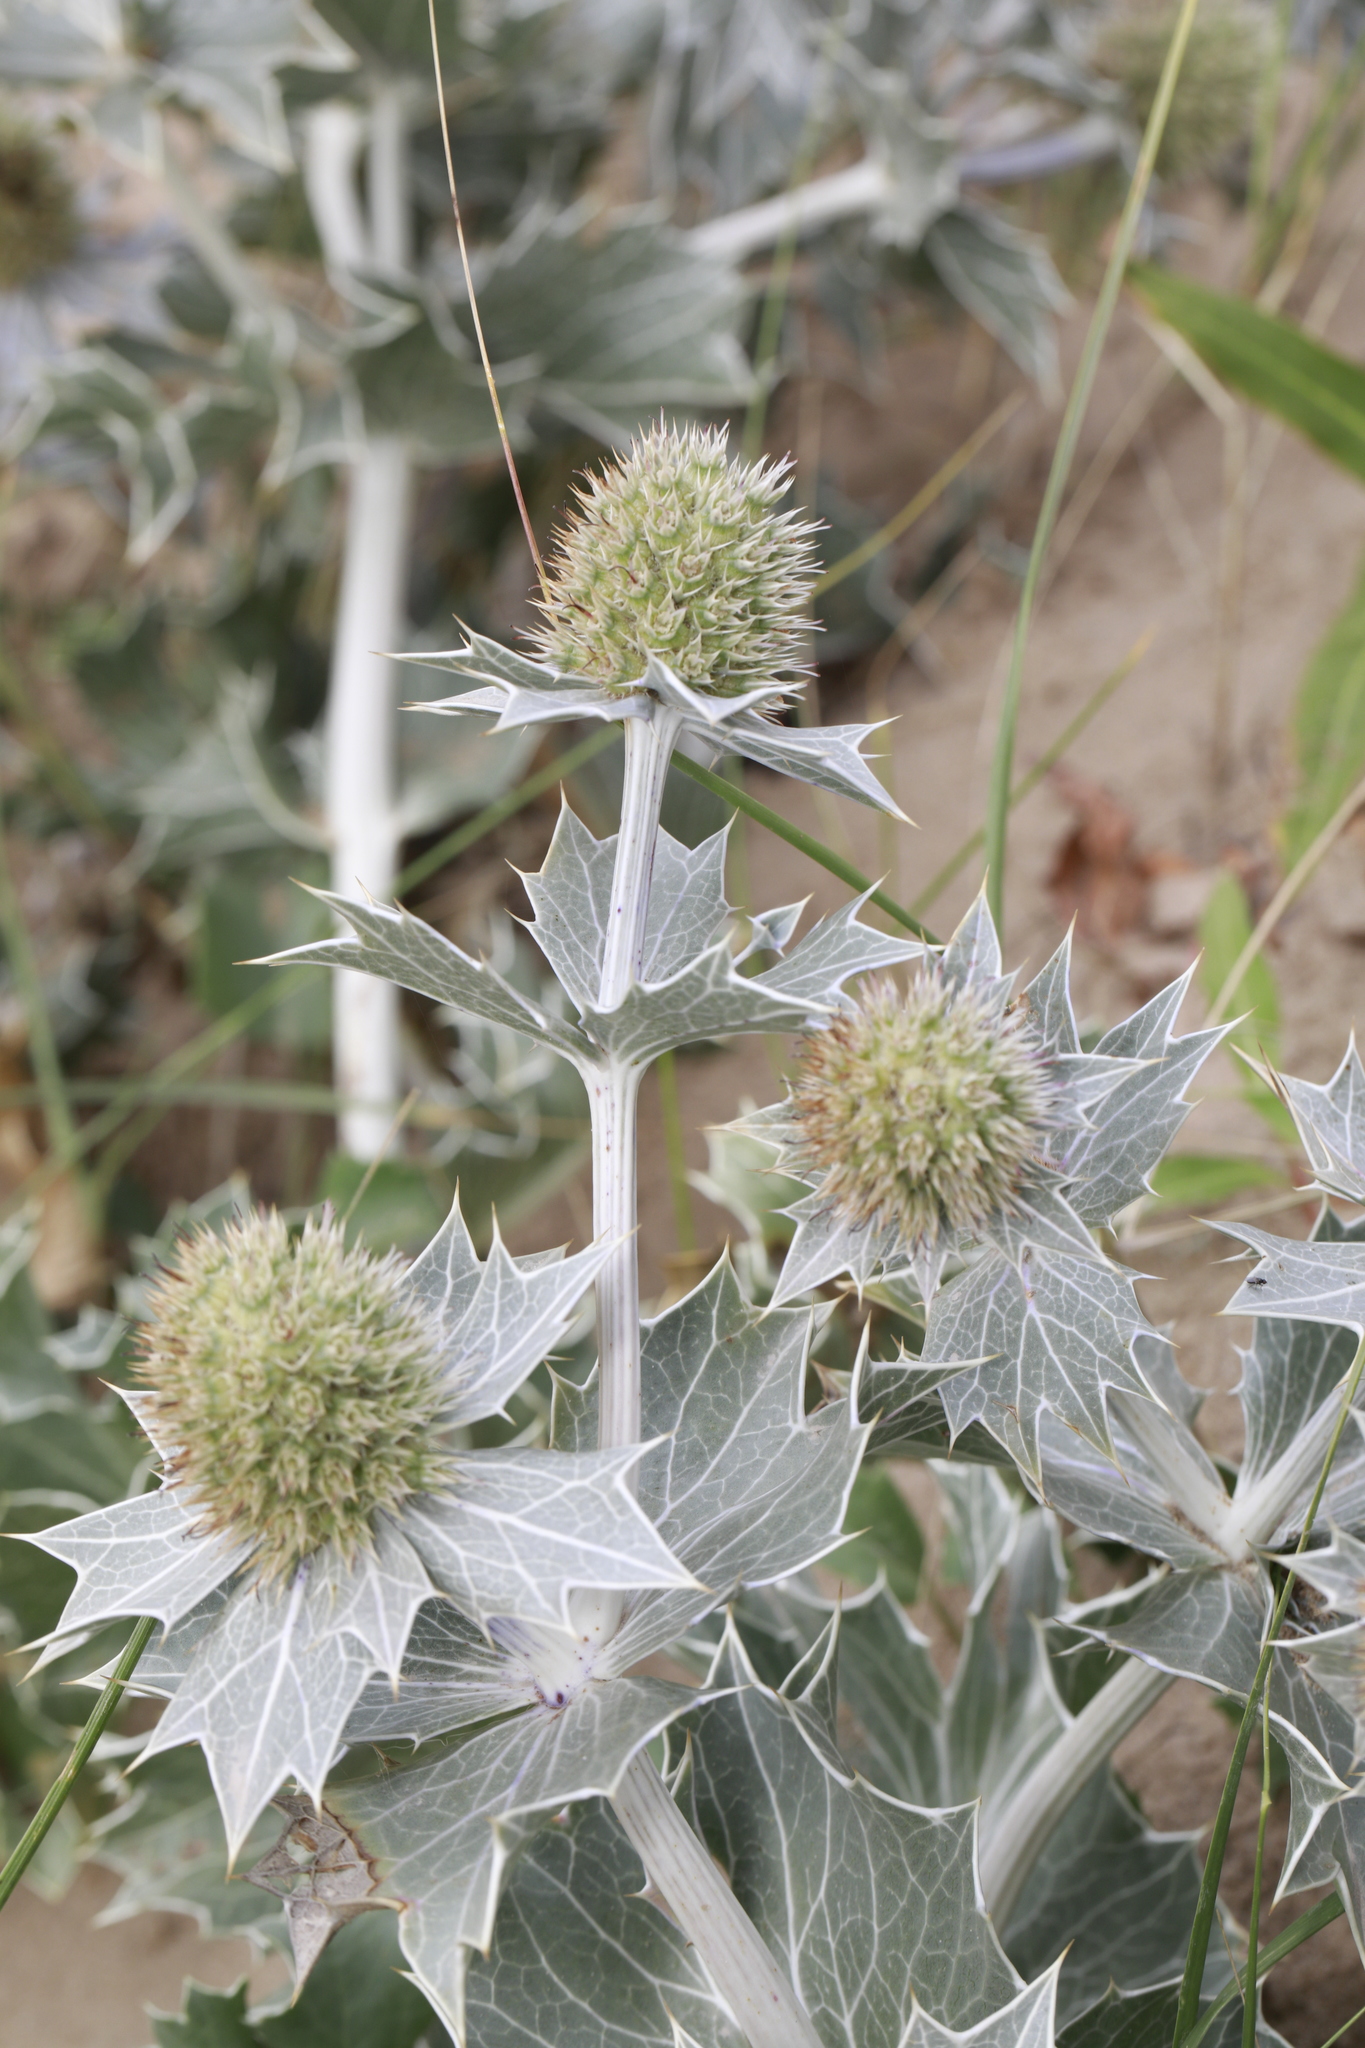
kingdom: Plantae
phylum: Tracheophyta
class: Magnoliopsida
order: Apiales
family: Apiaceae
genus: Eryngium
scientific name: Eryngium maritimum
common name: Sea-holly
